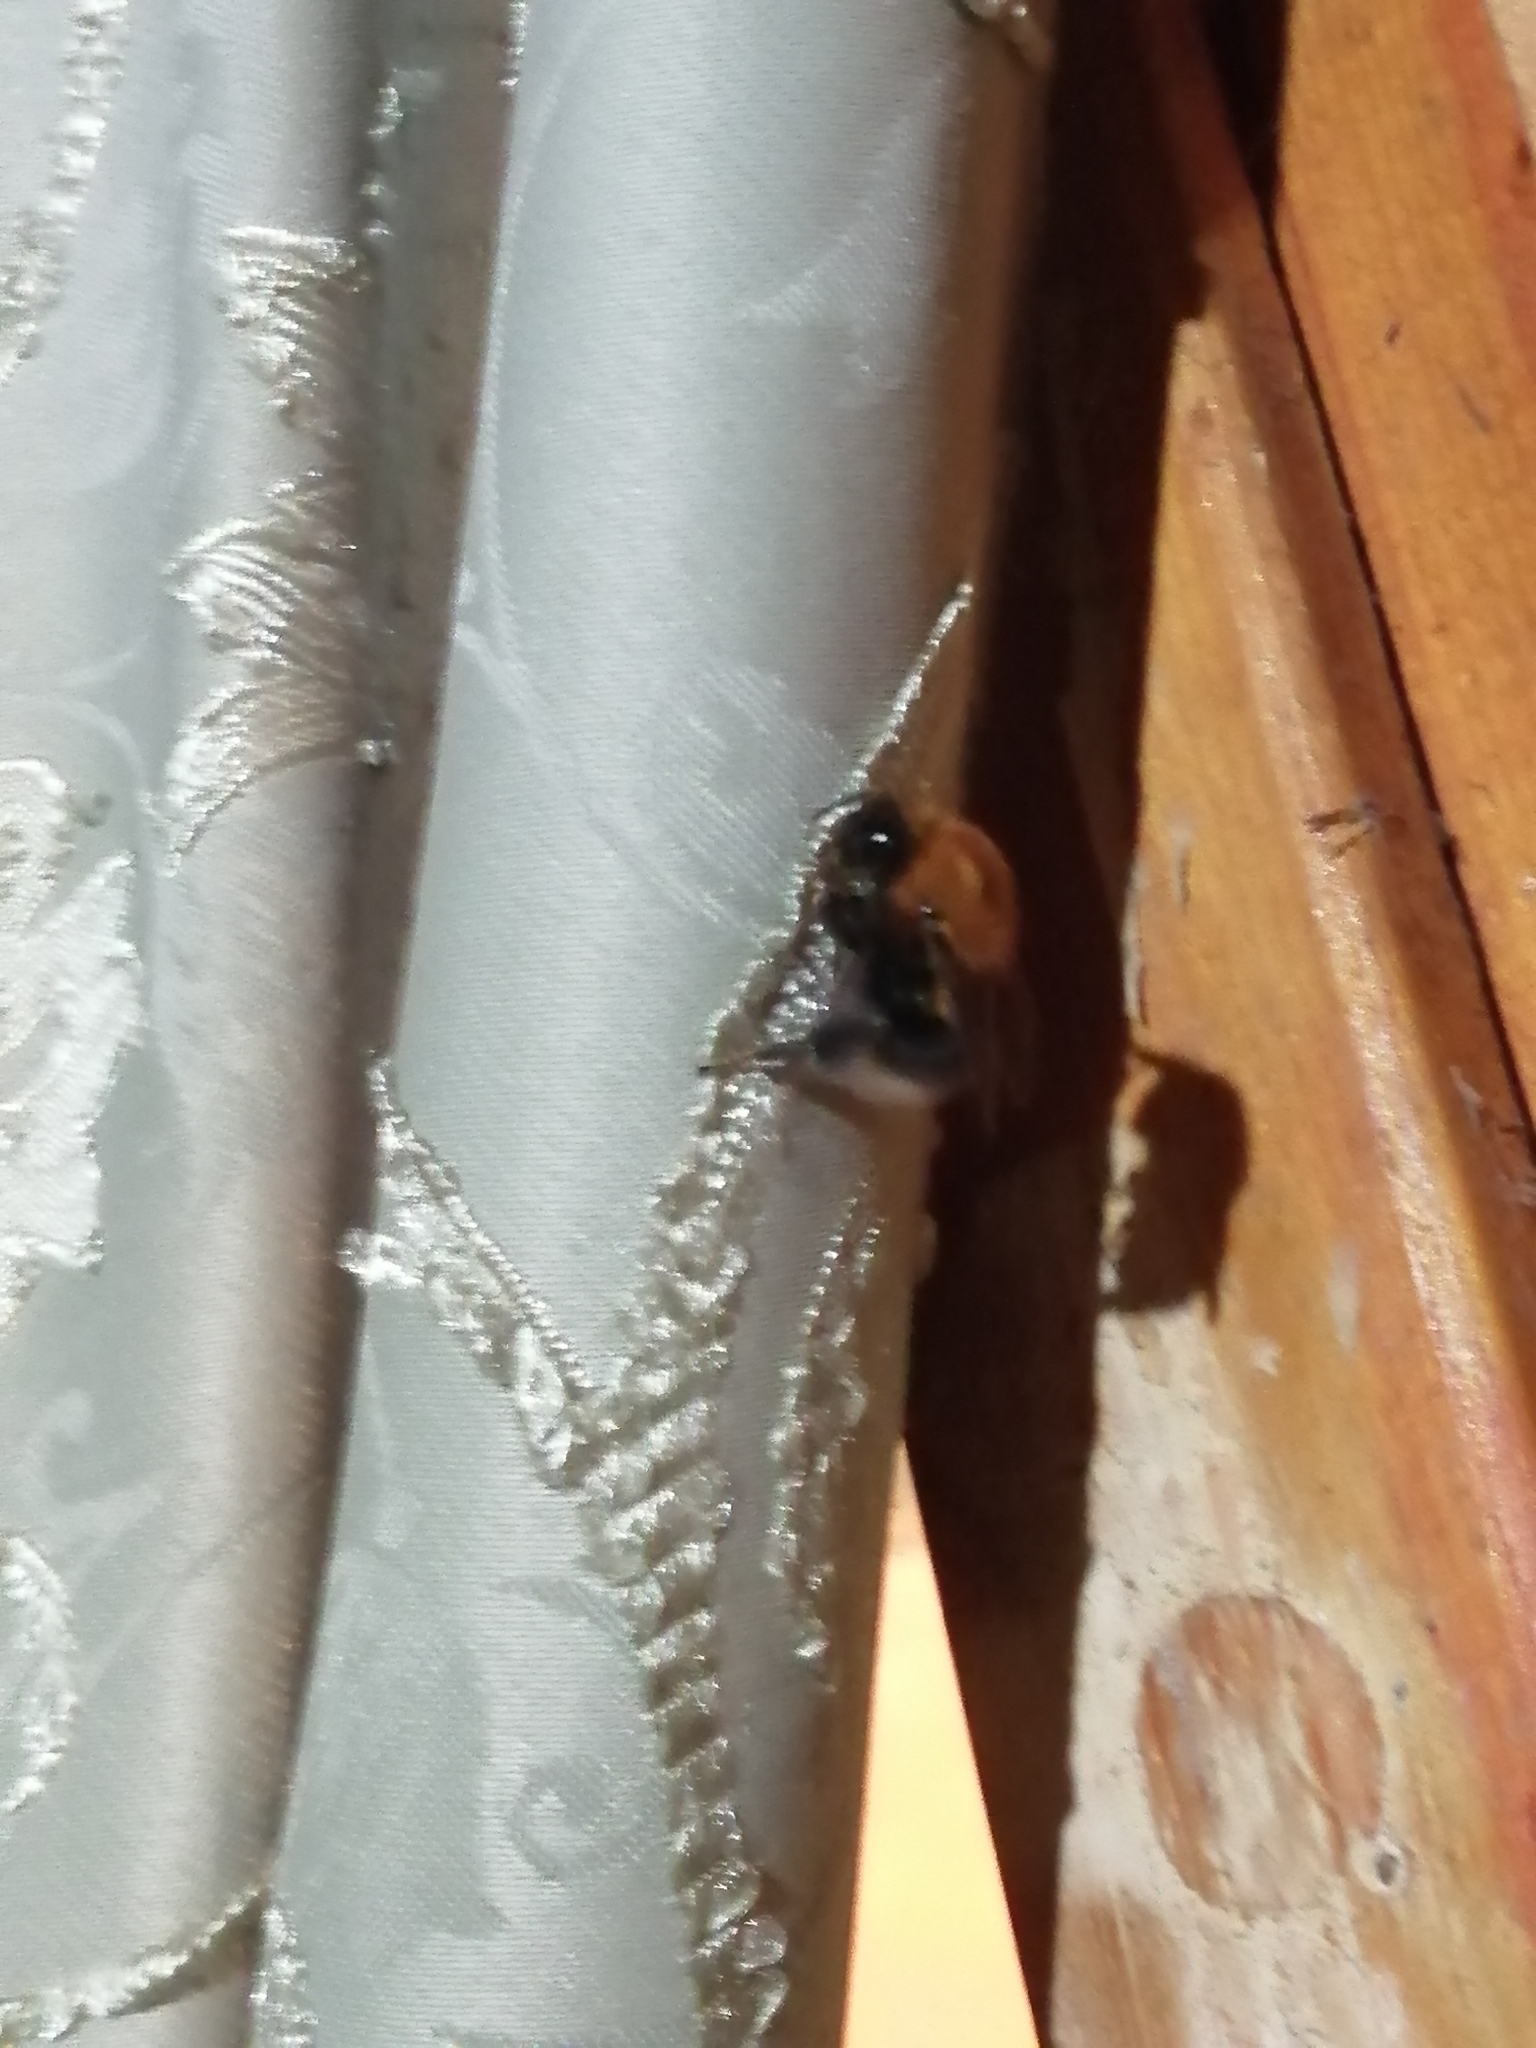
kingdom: Animalia
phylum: Arthropoda
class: Insecta
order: Hymenoptera
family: Apidae
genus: Bombus
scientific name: Bombus hypnorum
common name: New garden bumblebee
